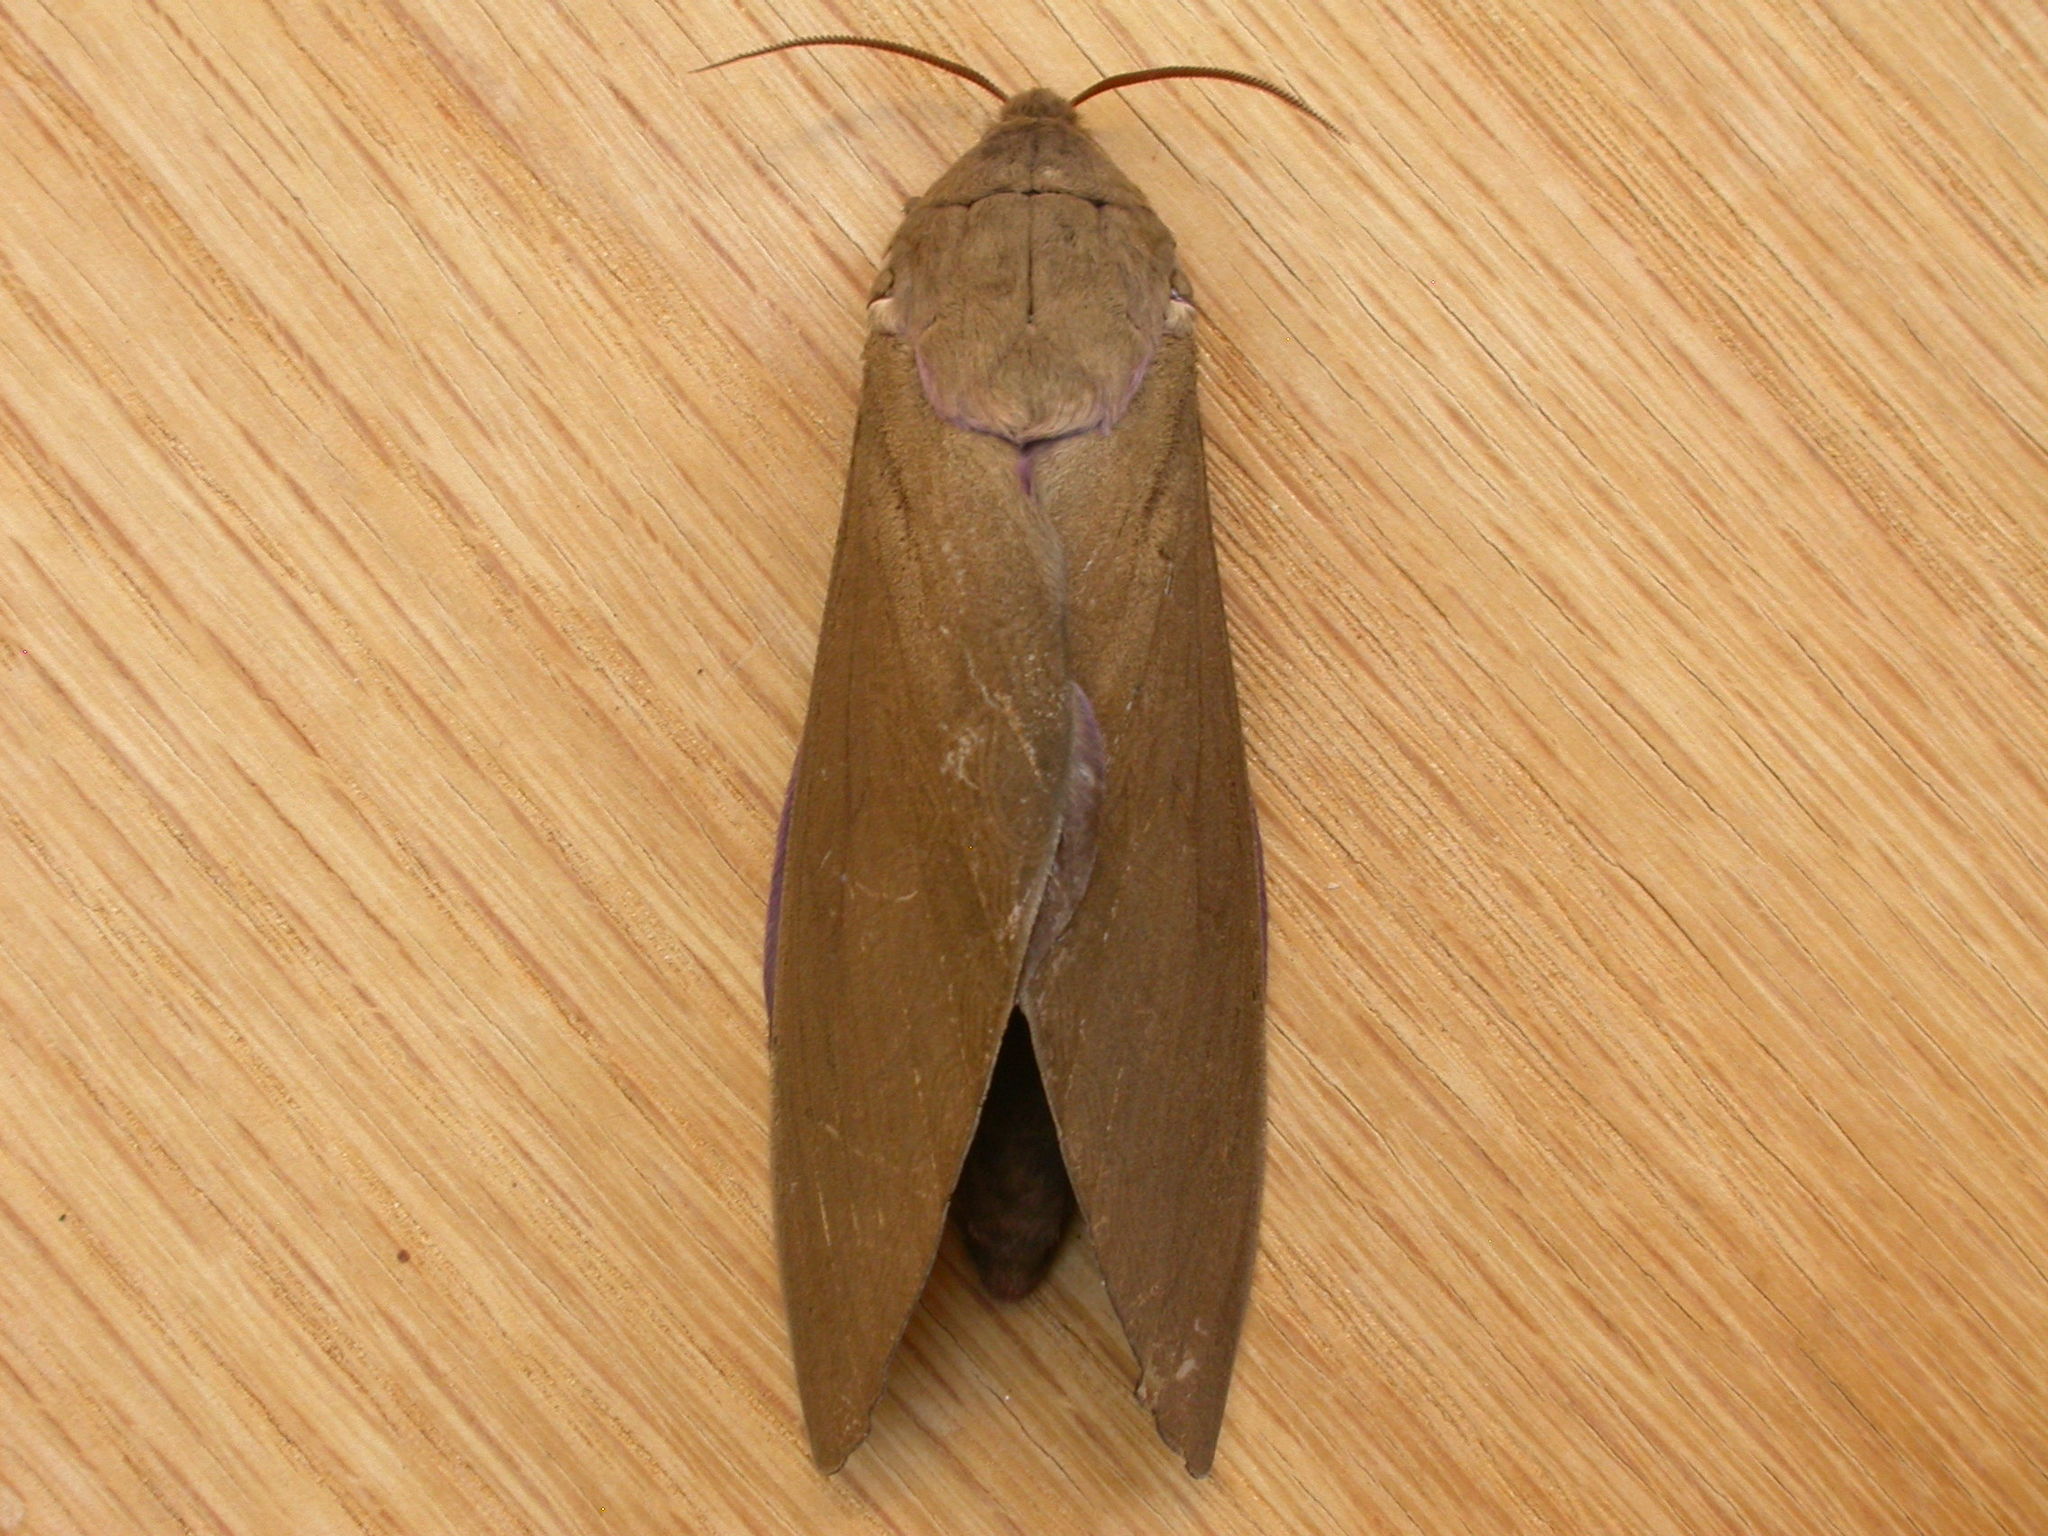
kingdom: Animalia
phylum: Arthropoda
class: Insecta
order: Lepidoptera
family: Hepialidae
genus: Abantiades
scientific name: Abantiades hyalinatus
